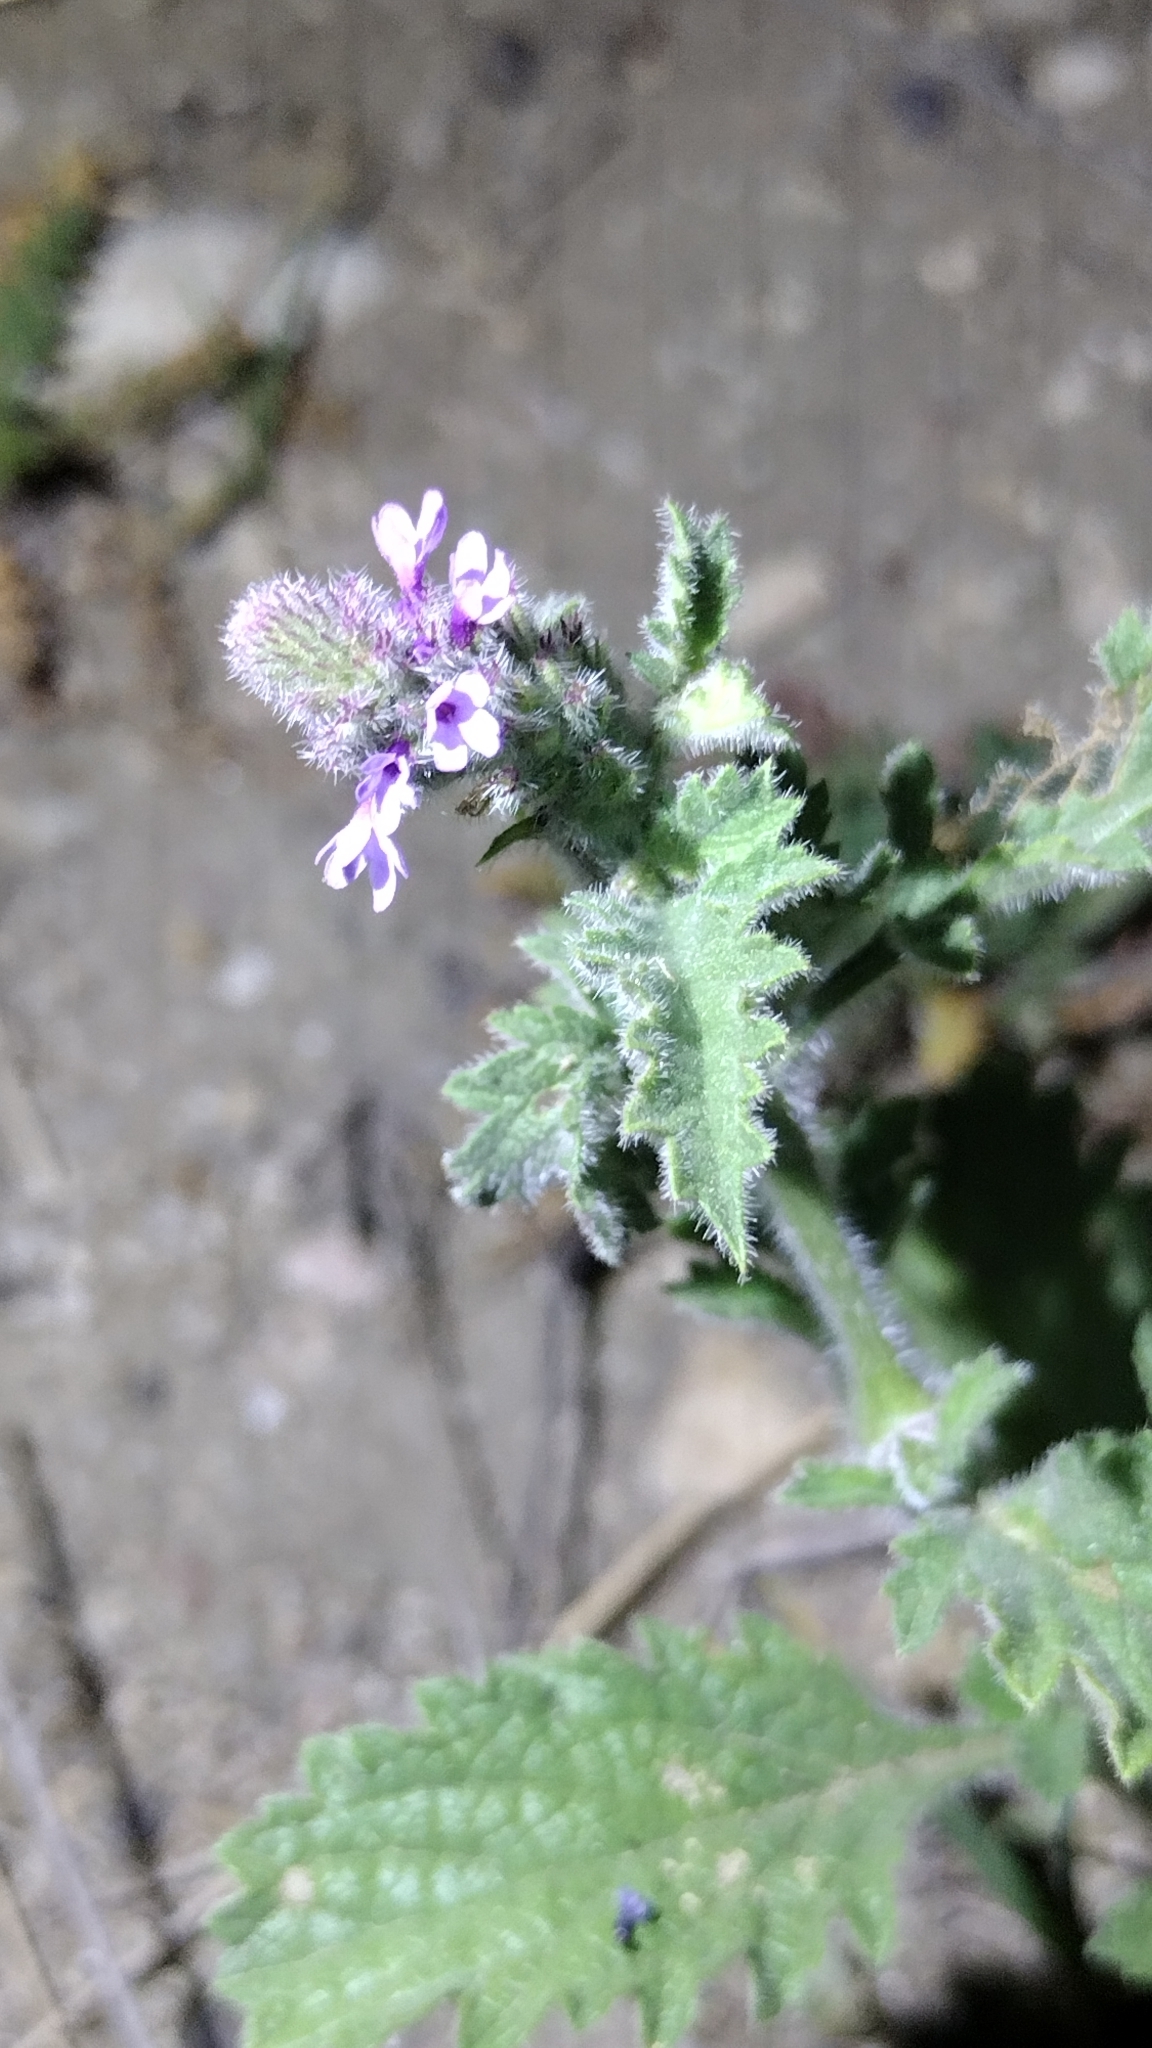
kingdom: Plantae
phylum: Tracheophyta
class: Magnoliopsida
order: Lamiales
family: Verbenaceae
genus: Verbena
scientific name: Verbena lasiostachys
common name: Vervain
